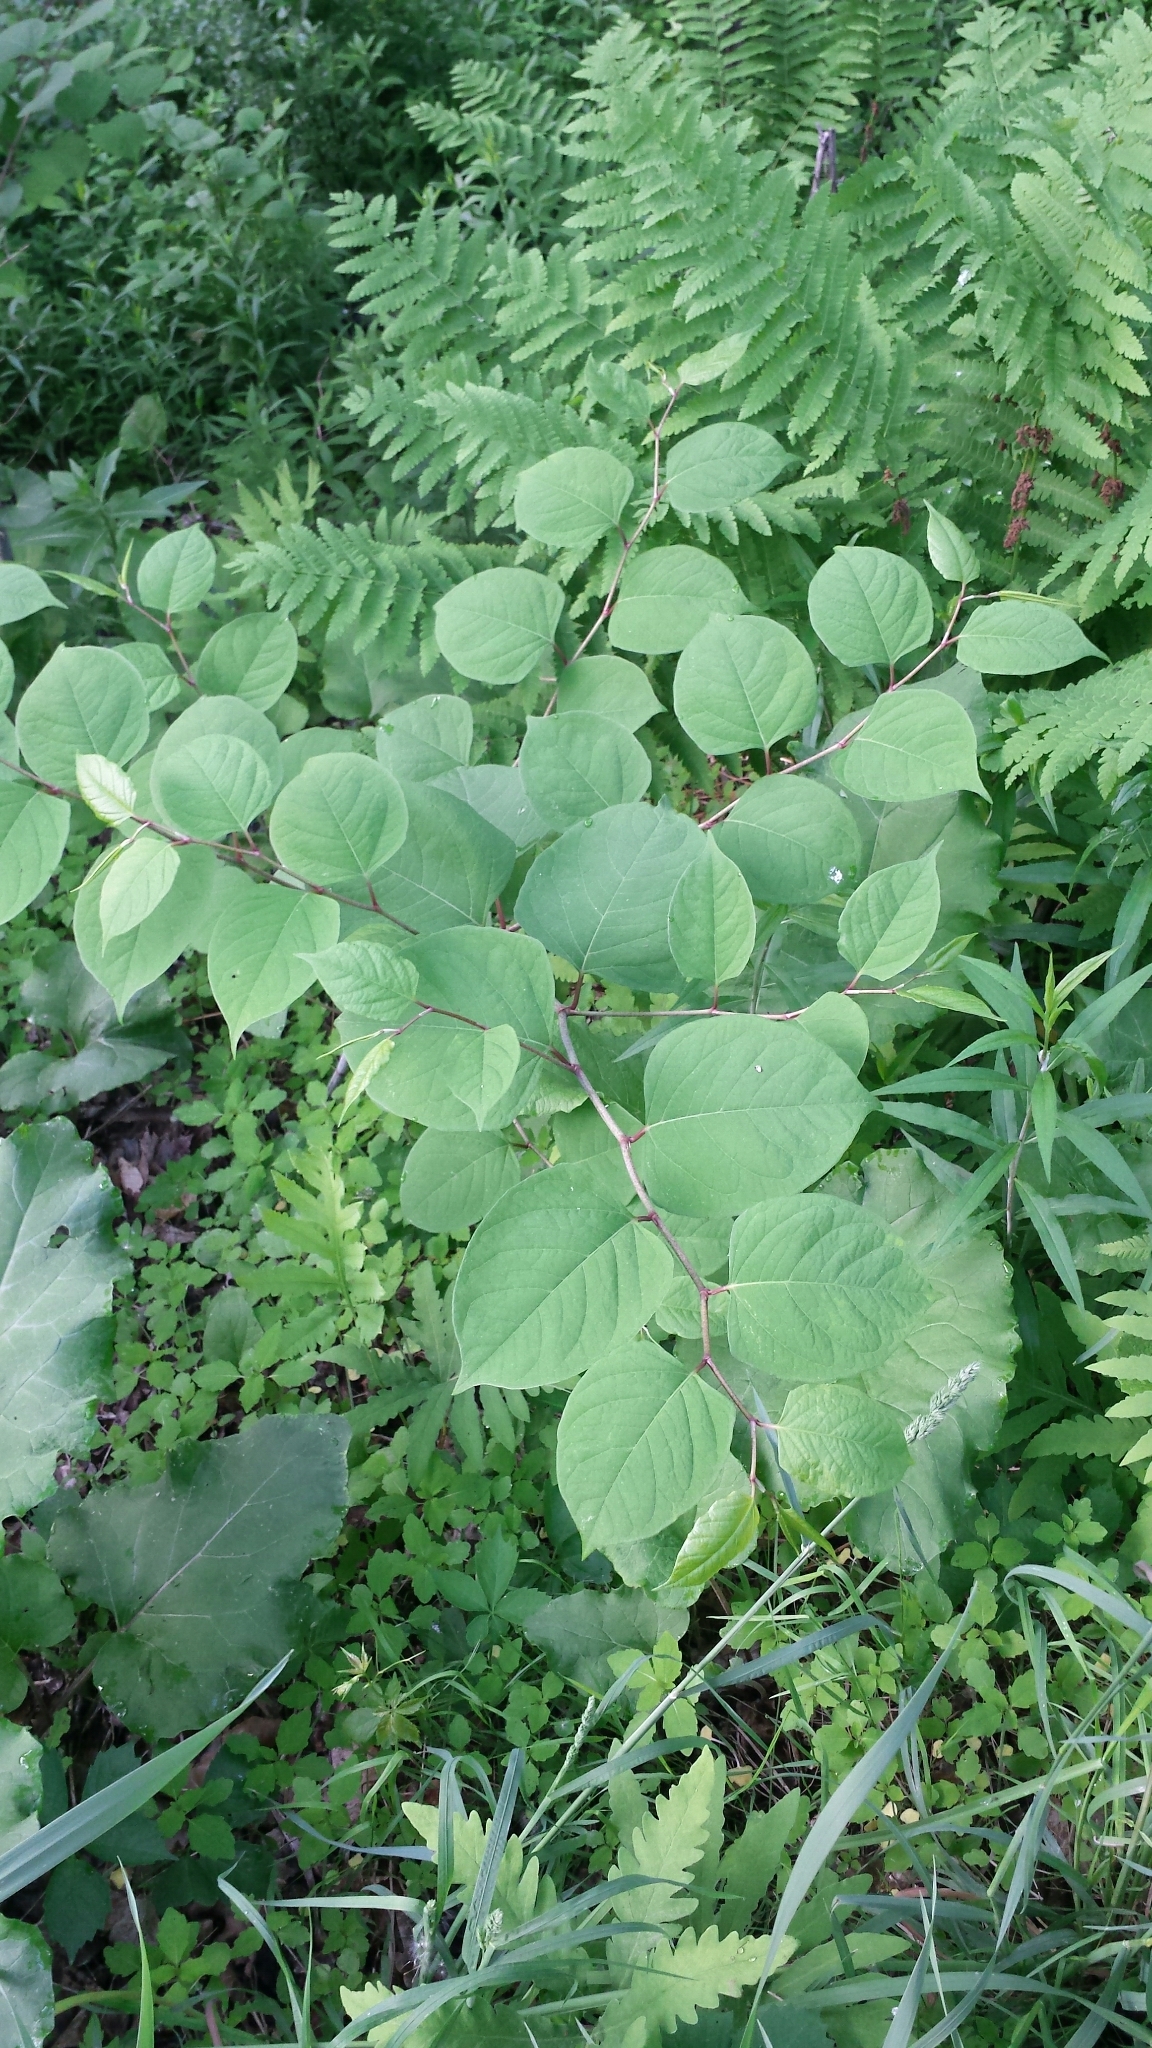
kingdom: Plantae
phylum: Tracheophyta
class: Magnoliopsida
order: Caryophyllales
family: Polygonaceae
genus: Reynoutria
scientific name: Reynoutria japonica
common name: Japanese knotweed
